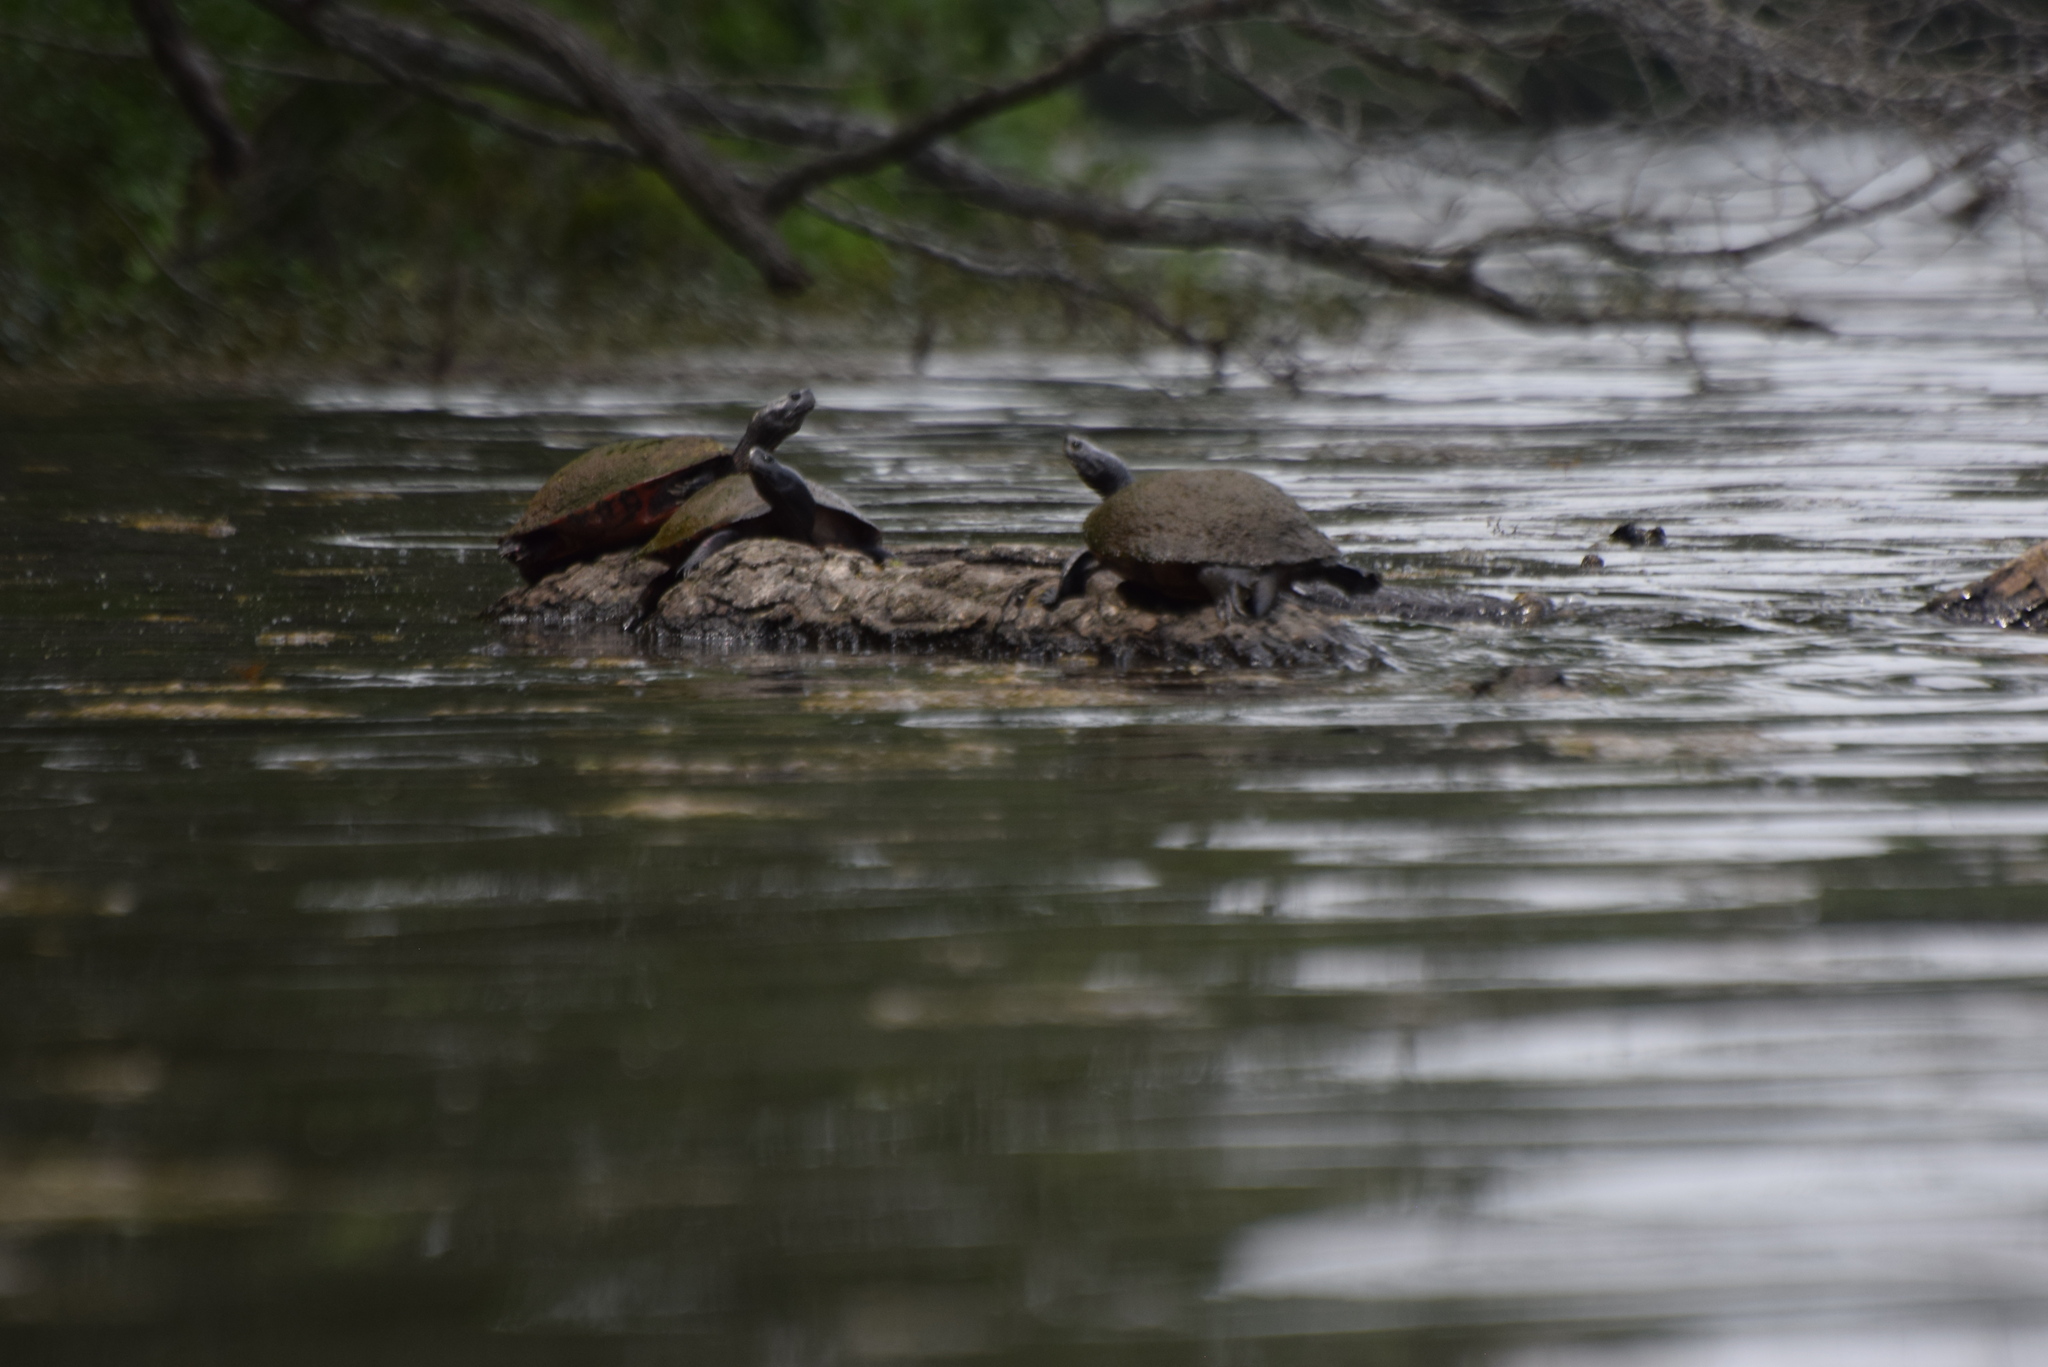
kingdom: Animalia
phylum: Chordata
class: Testudines
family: Emydidae
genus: Pseudemys
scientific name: Pseudemys rubriventris
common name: American red-bellied turtle
